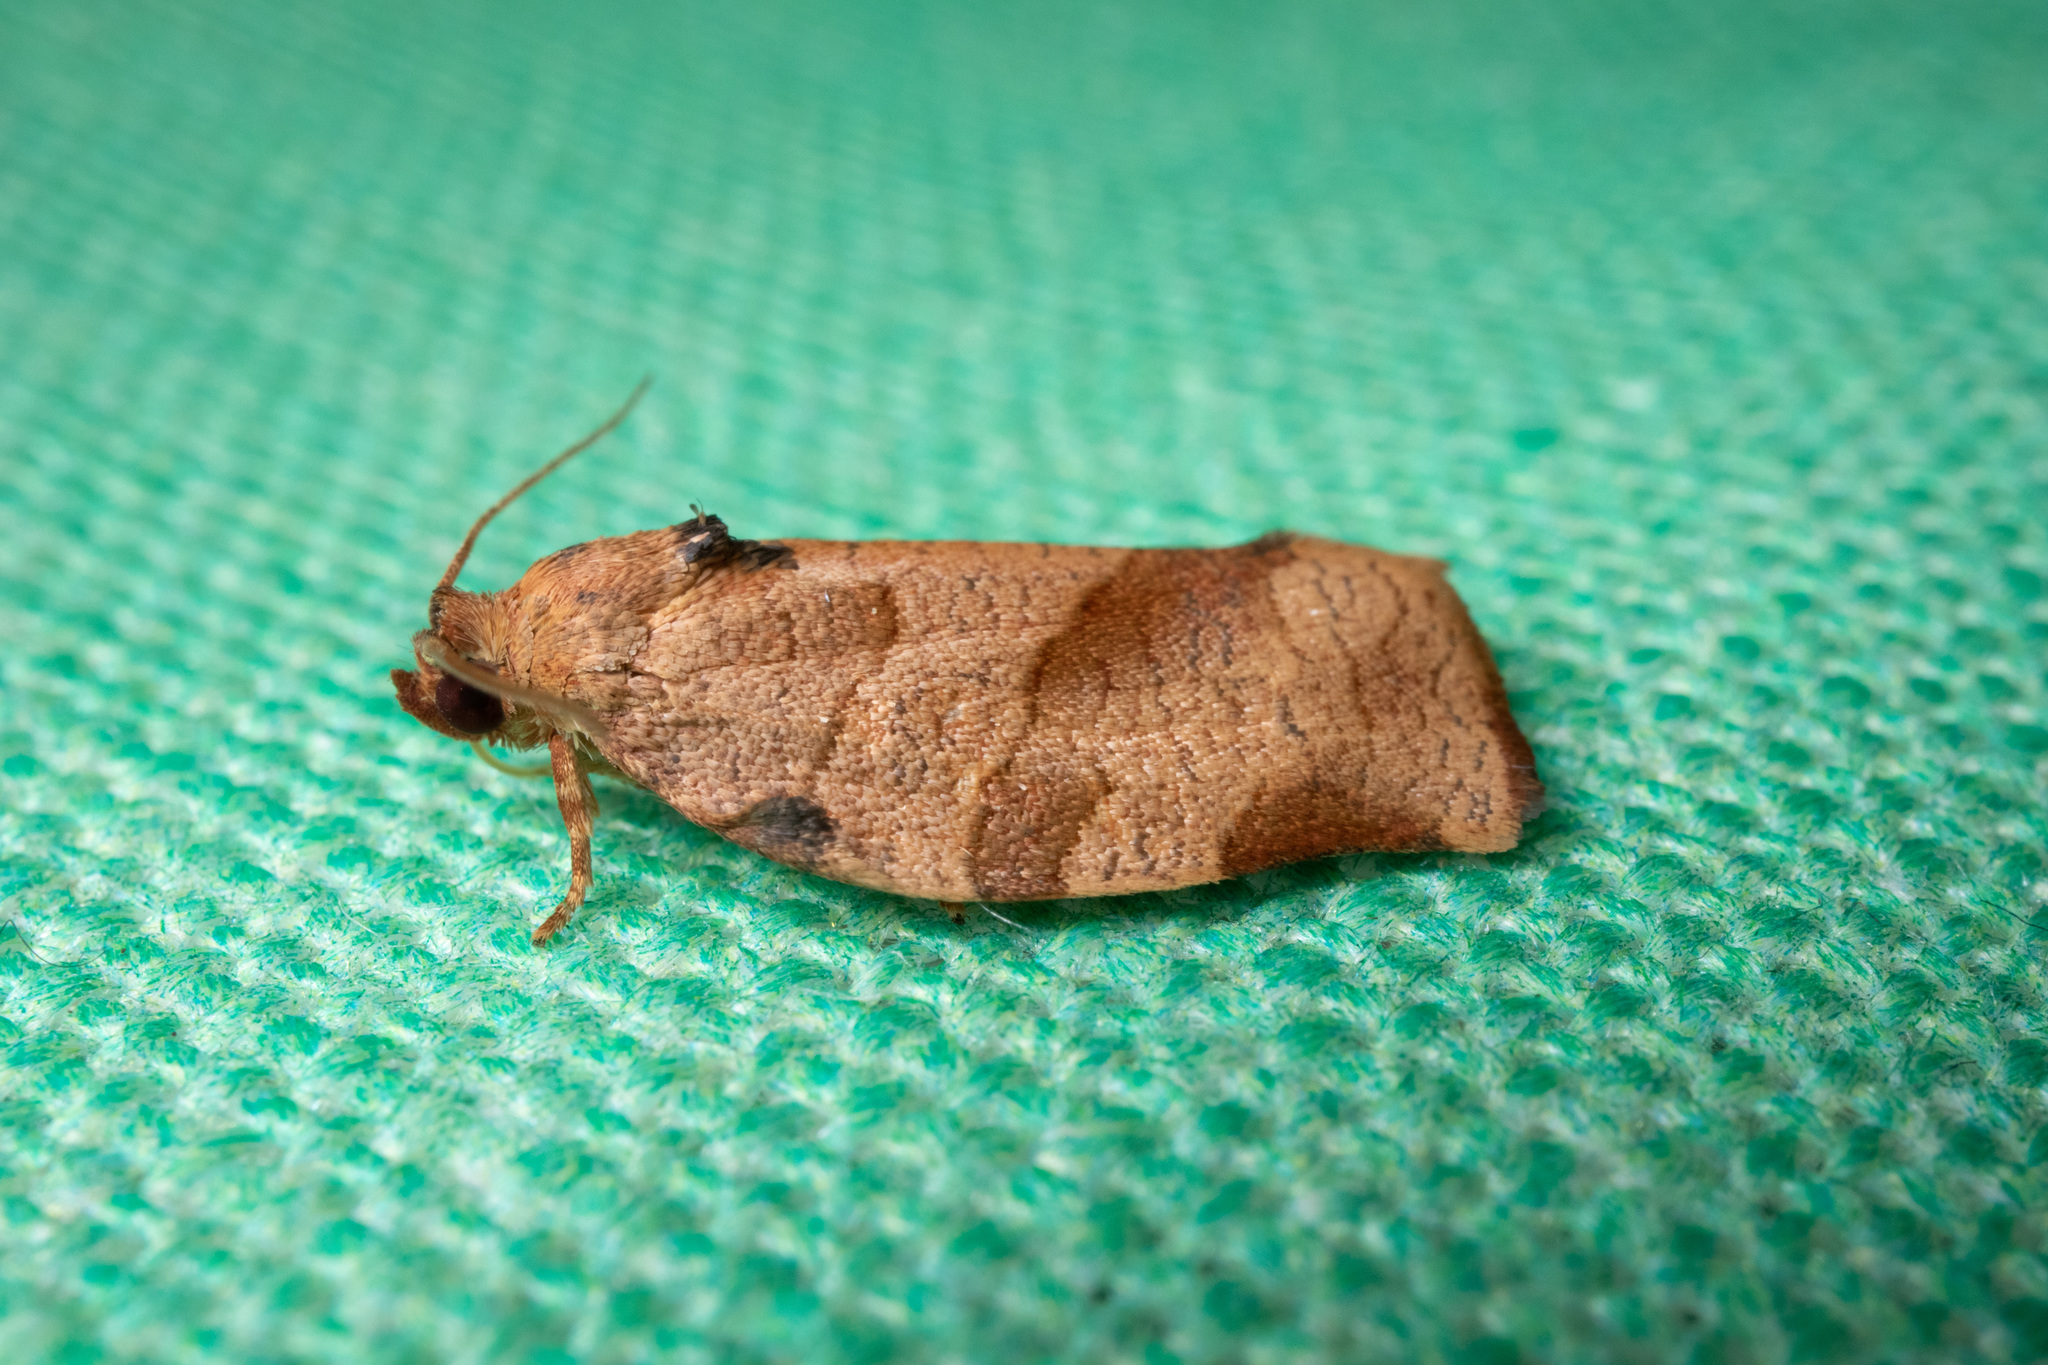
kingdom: Animalia
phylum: Arthropoda
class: Insecta
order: Lepidoptera
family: Tortricidae
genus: Choristoneura
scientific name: Choristoneura rosaceana
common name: Oblique-banded leafroller moth
